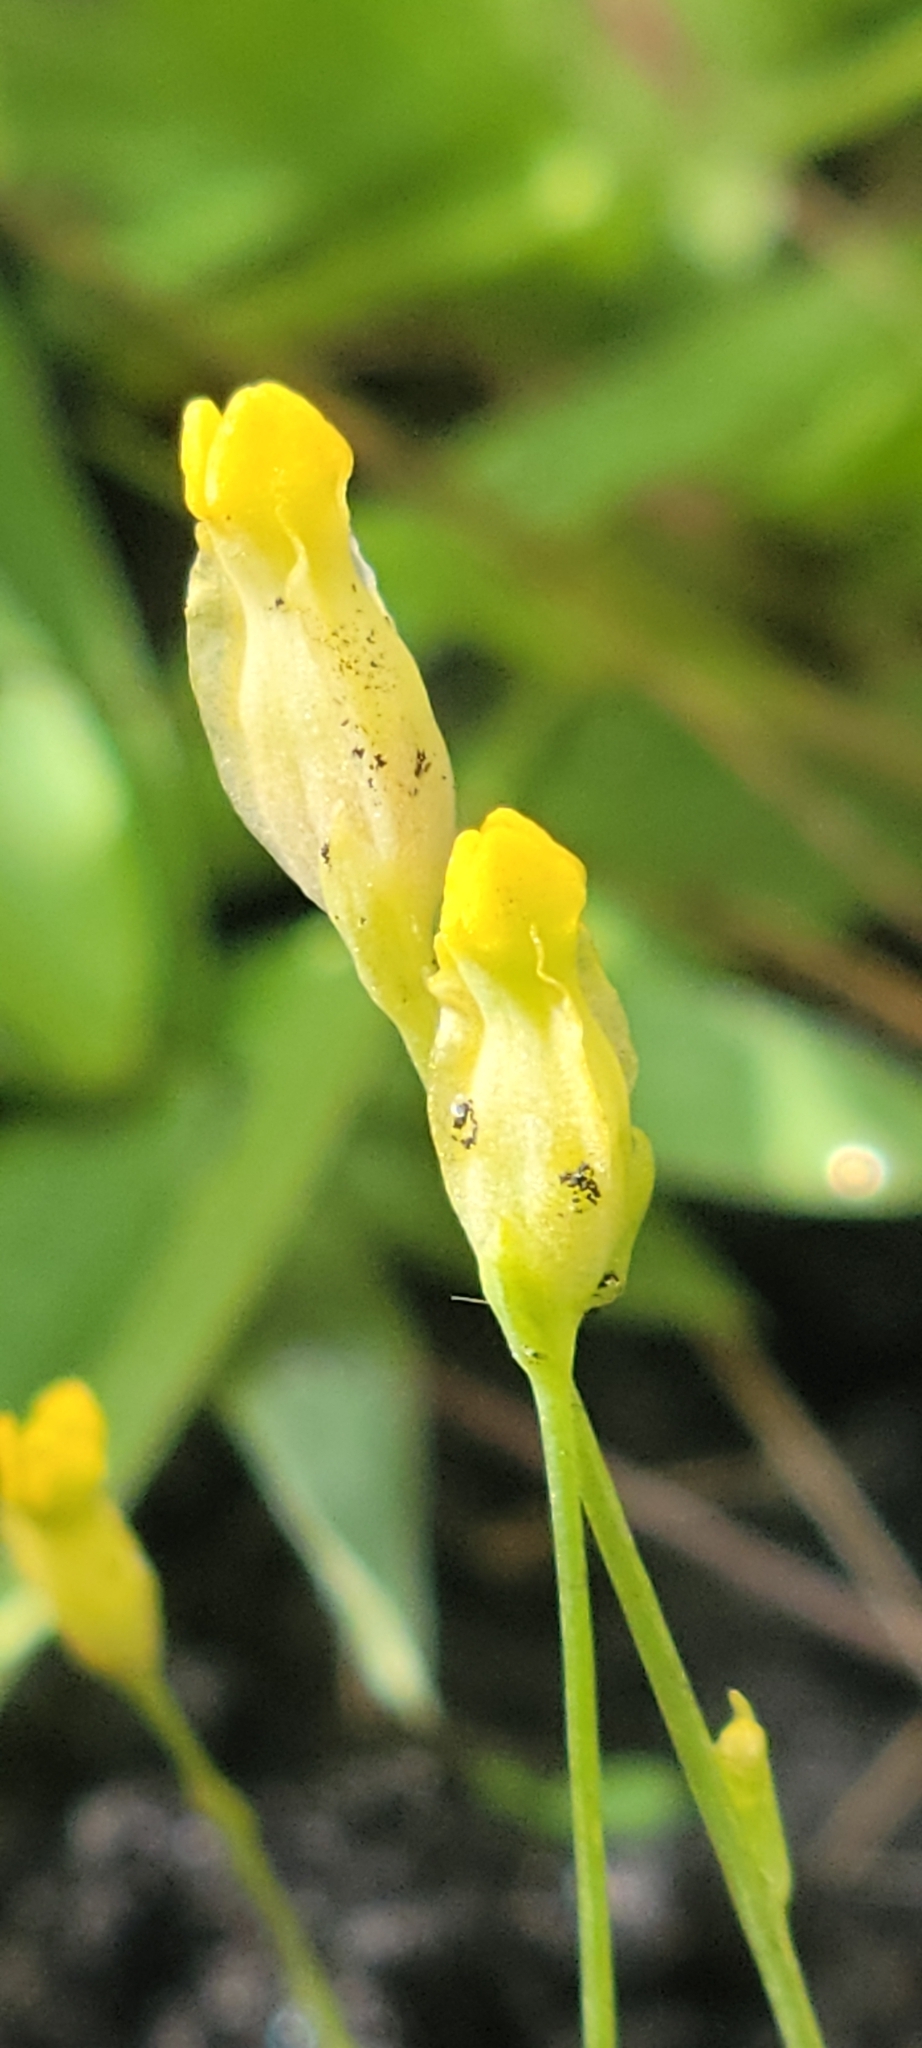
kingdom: Plantae
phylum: Tracheophyta
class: Liliopsida
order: Dioscoreales
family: Burmanniaceae
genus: Burmannia
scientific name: Burmannia flava
